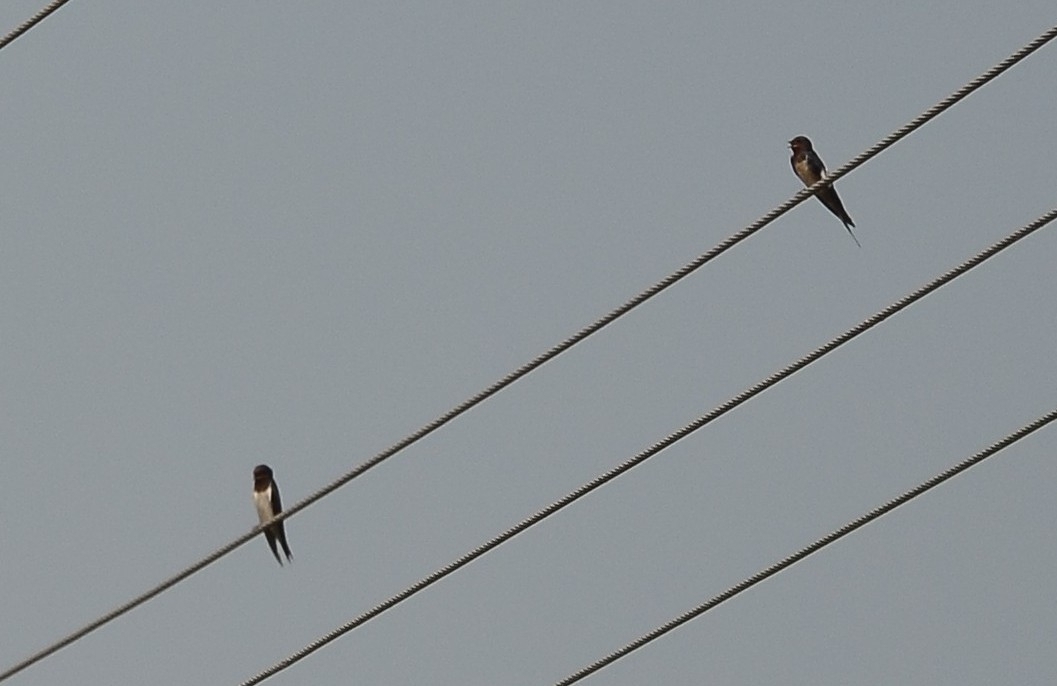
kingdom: Animalia
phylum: Chordata
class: Aves
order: Passeriformes
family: Hirundinidae
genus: Hirundo
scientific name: Hirundo rustica
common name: Barn swallow
